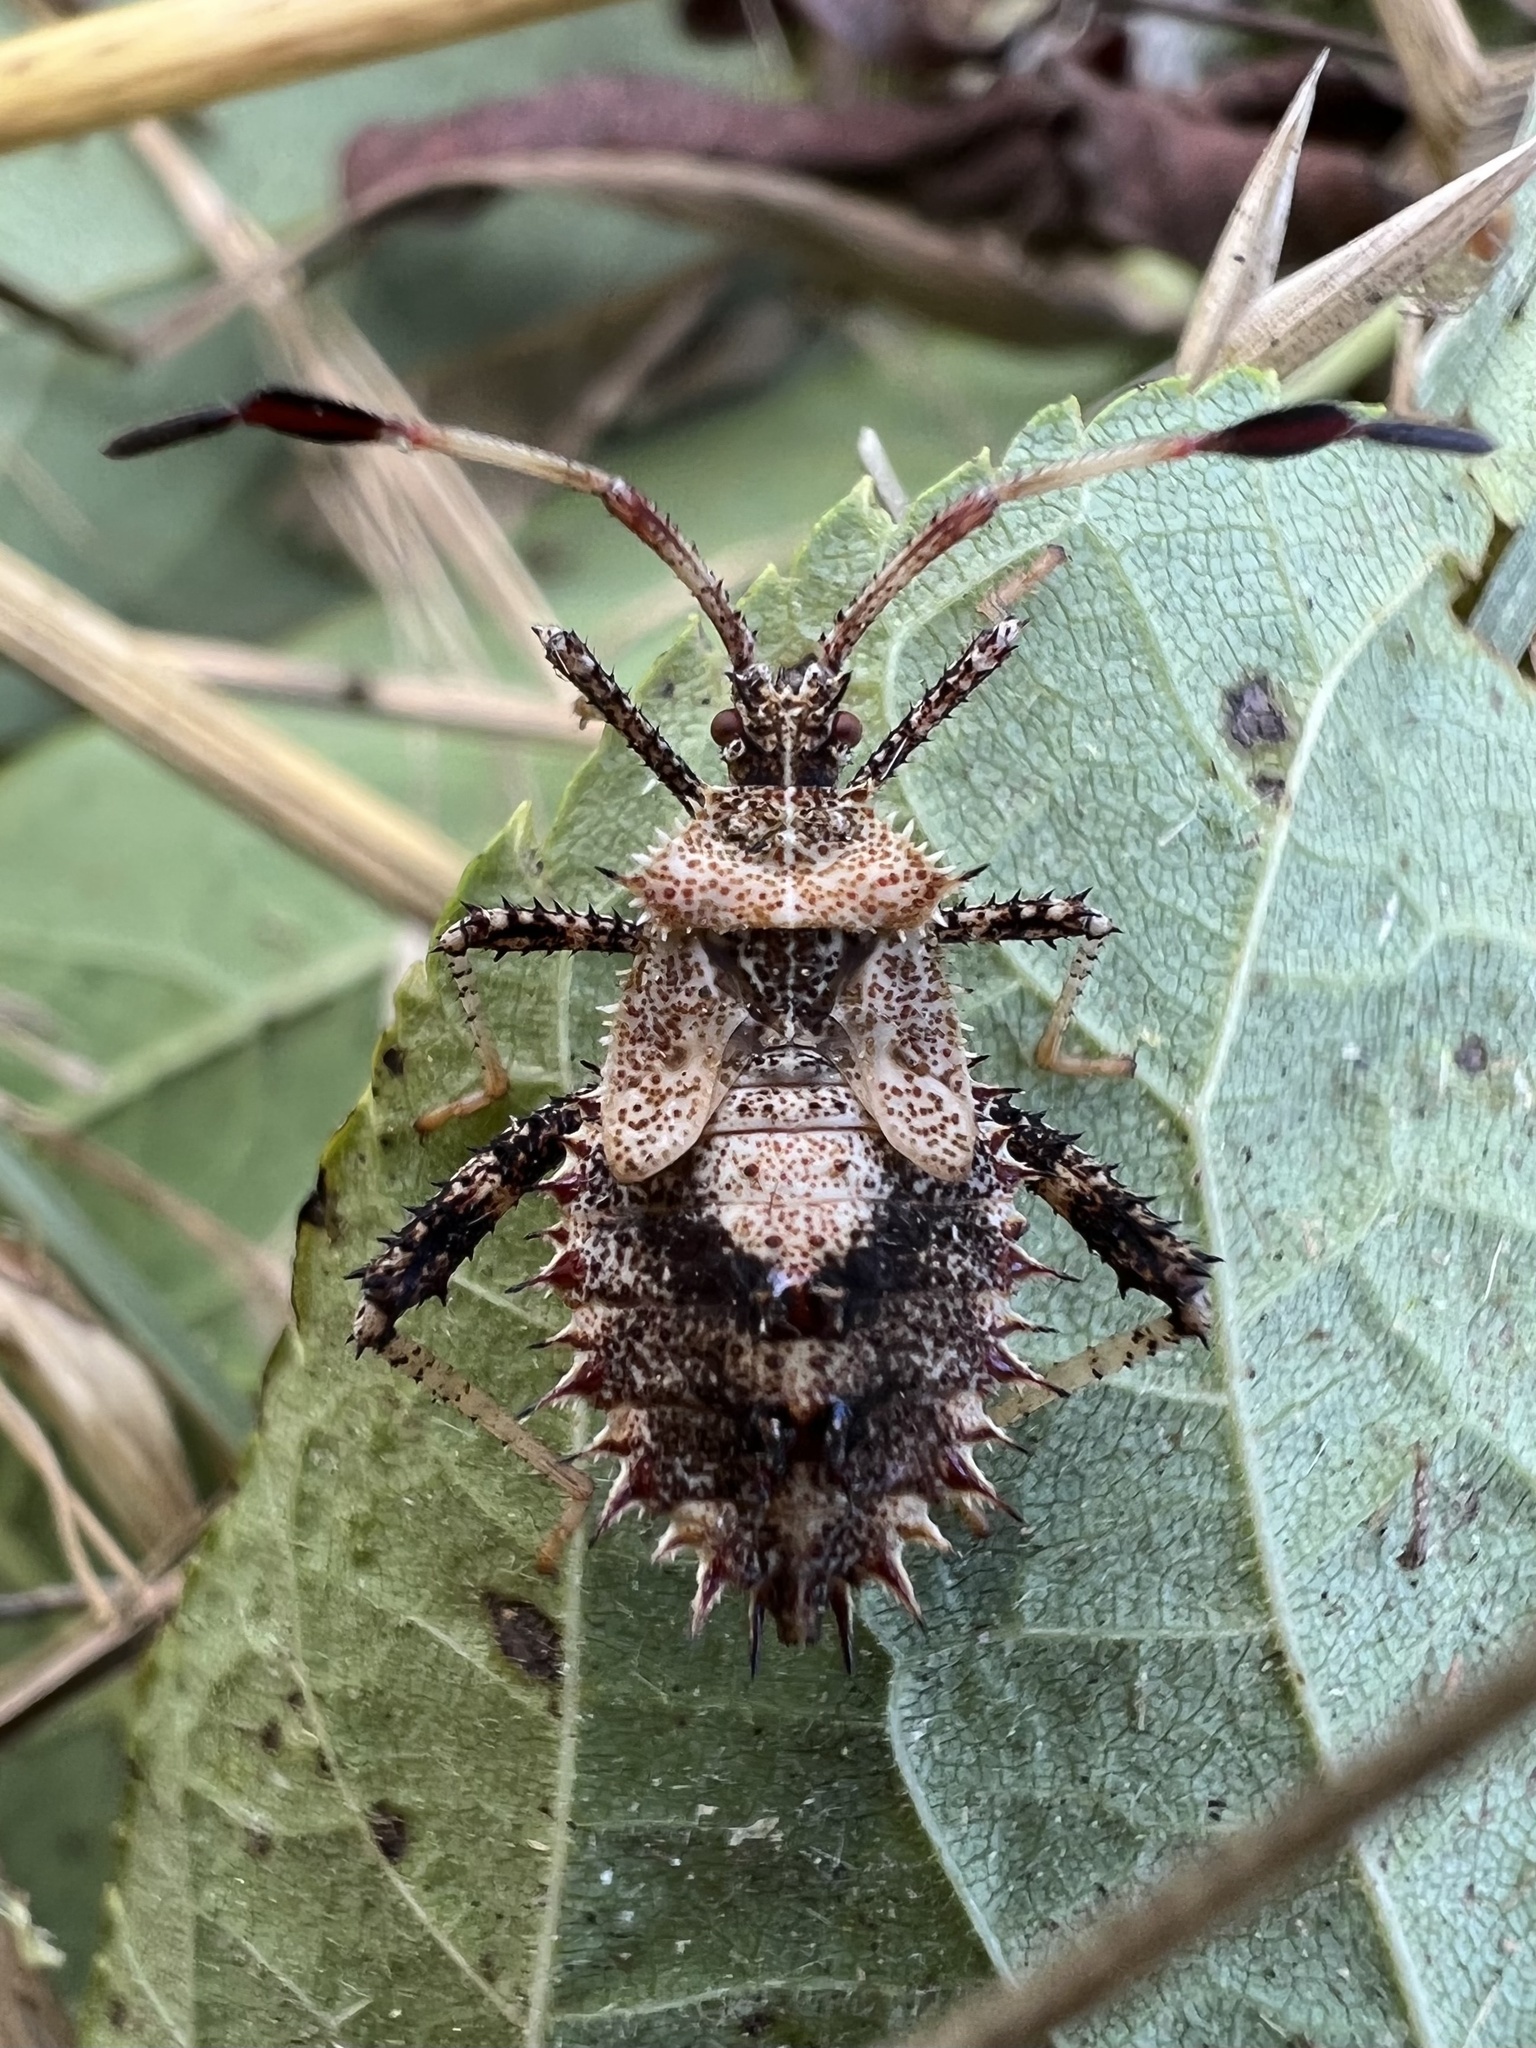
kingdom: Animalia
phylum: Arthropoda
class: Insecta
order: Hemiptera
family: Coreidae
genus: Euthochtha
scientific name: Euthochtha galeator
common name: Helmeted squash bug
